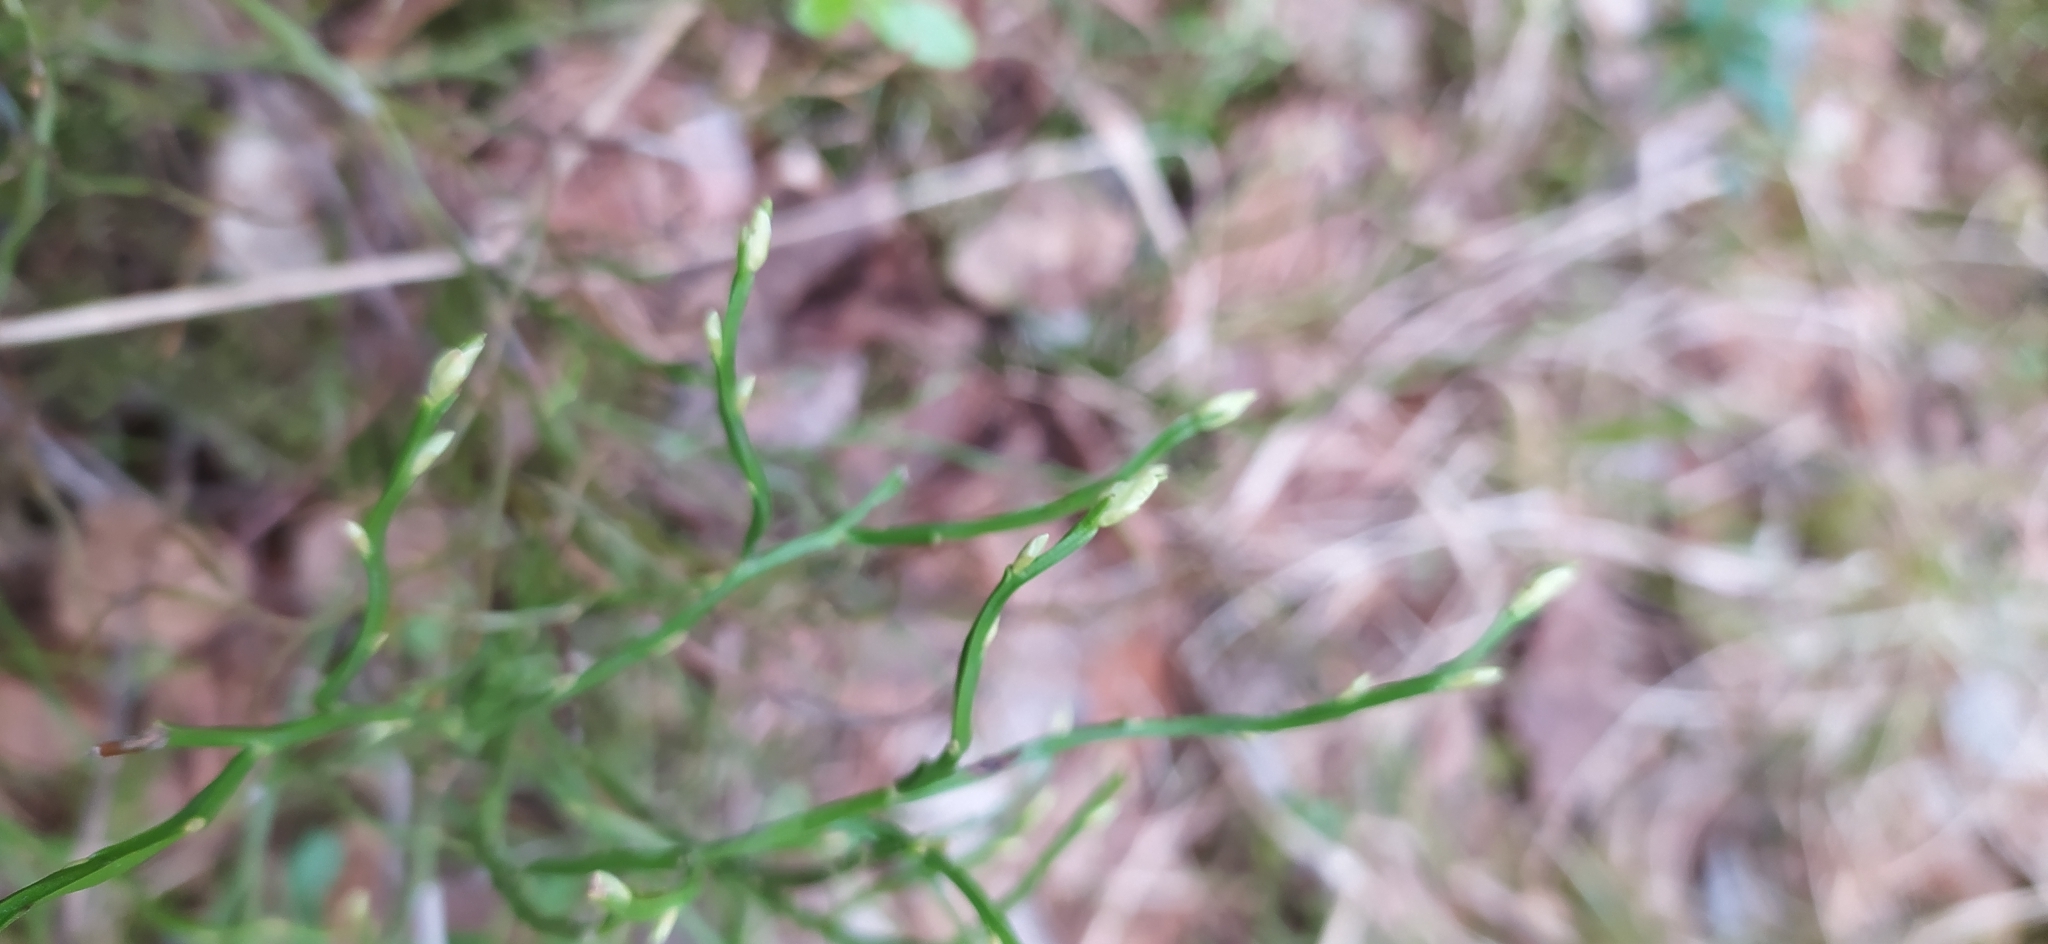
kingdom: Plantae
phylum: Tracheophyta
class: Magnoliopsida
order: Ericales
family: Ericaceae
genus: Vaccinium
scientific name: Vaccinium myrtillus
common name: Bilberry
